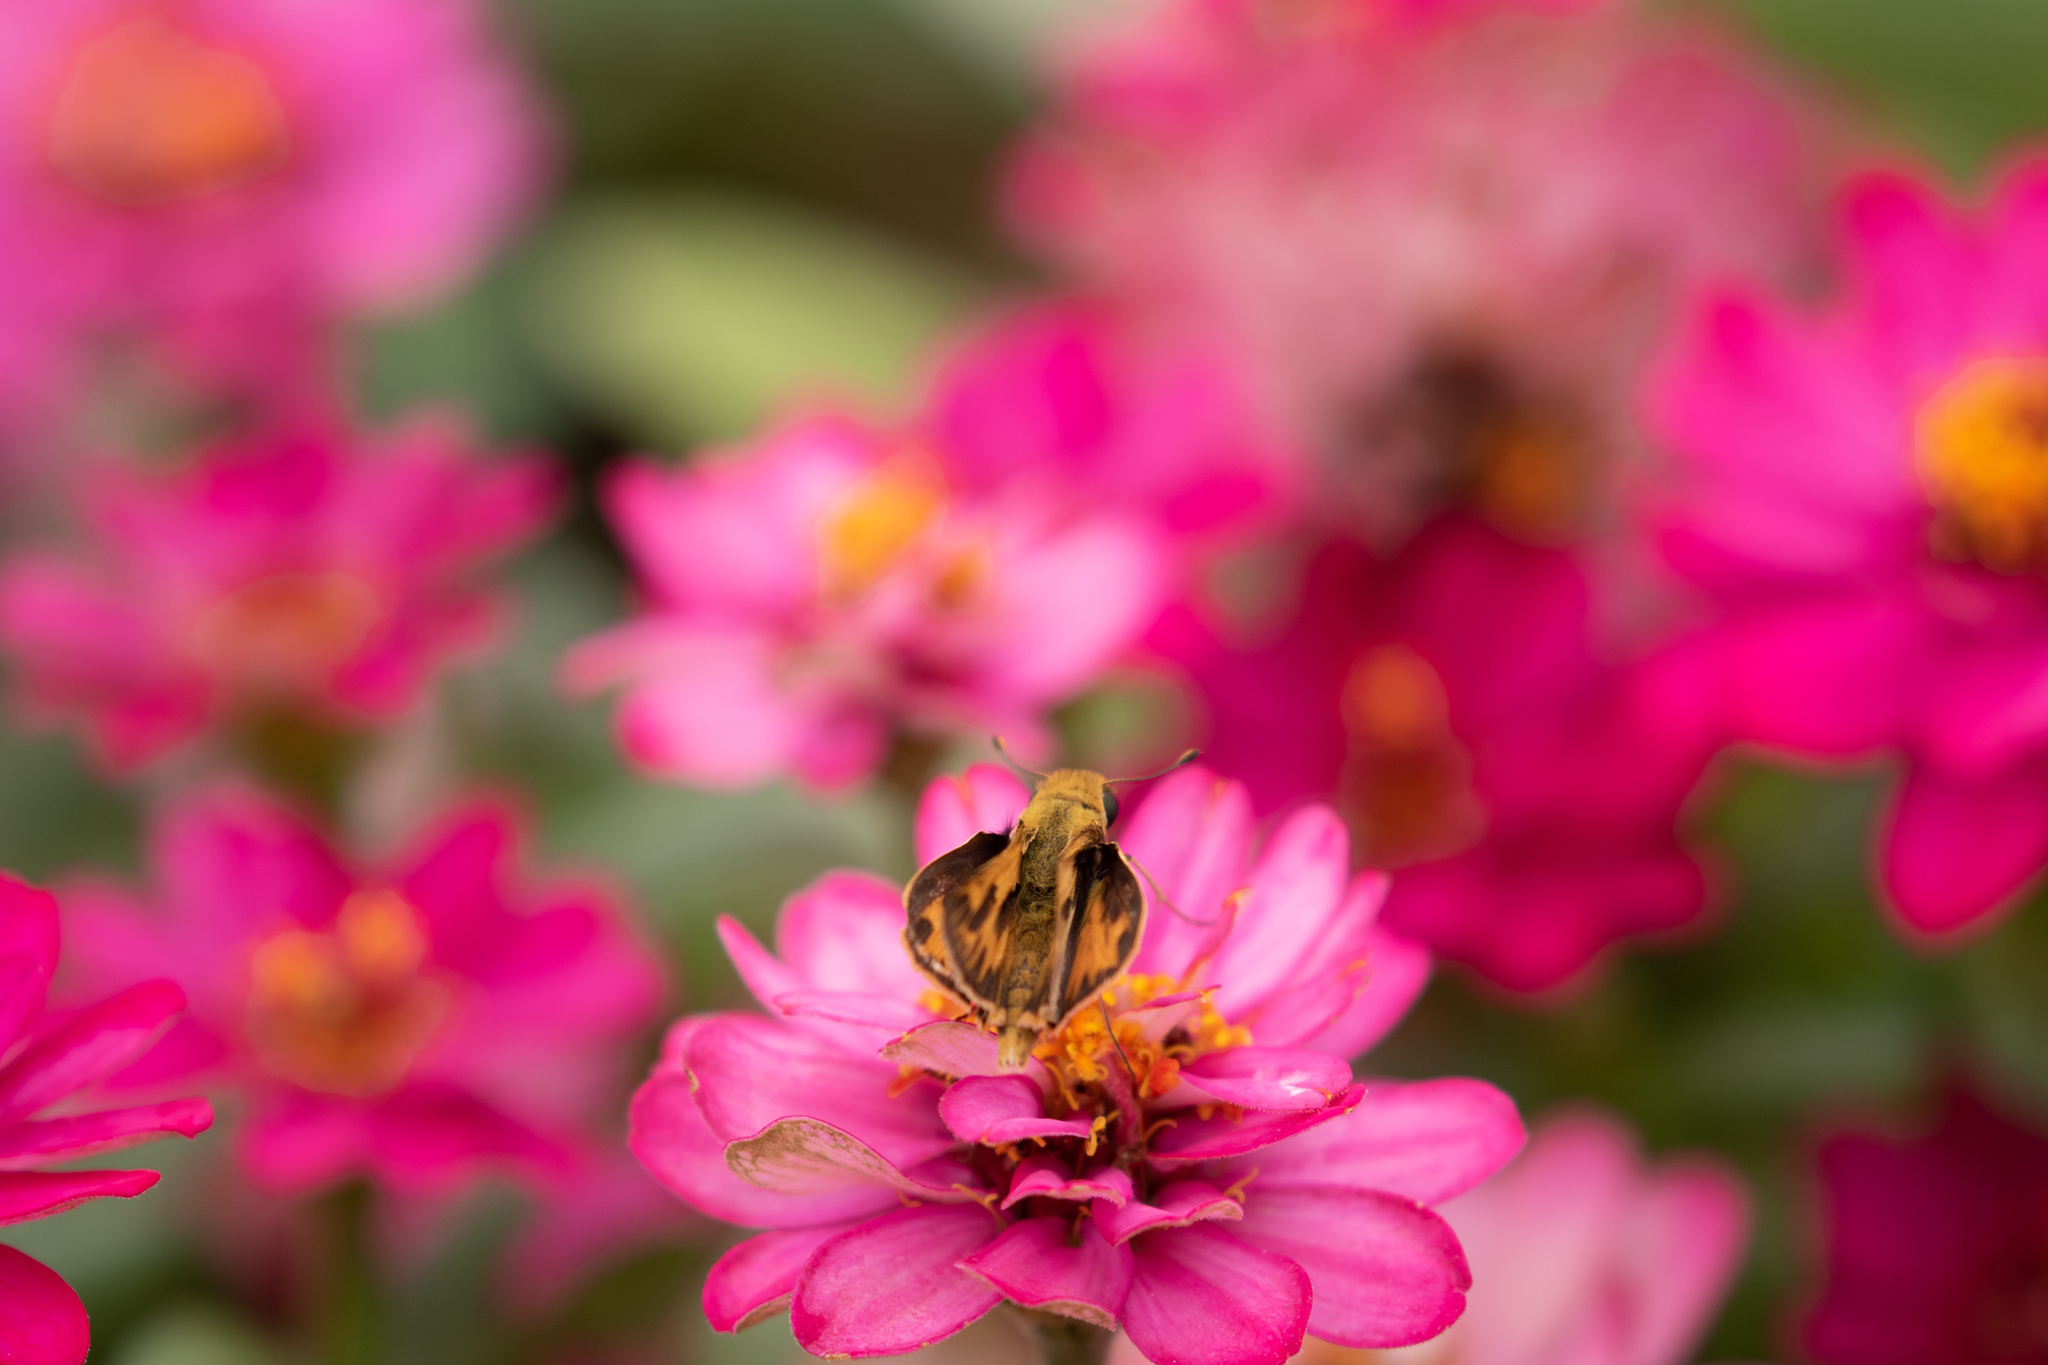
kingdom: Animalia
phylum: Arthropoda
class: Insecta
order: Lepidoptera
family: Hesperiidae
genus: Hylephila
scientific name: Hylephila phyleus
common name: Fiery skipper
